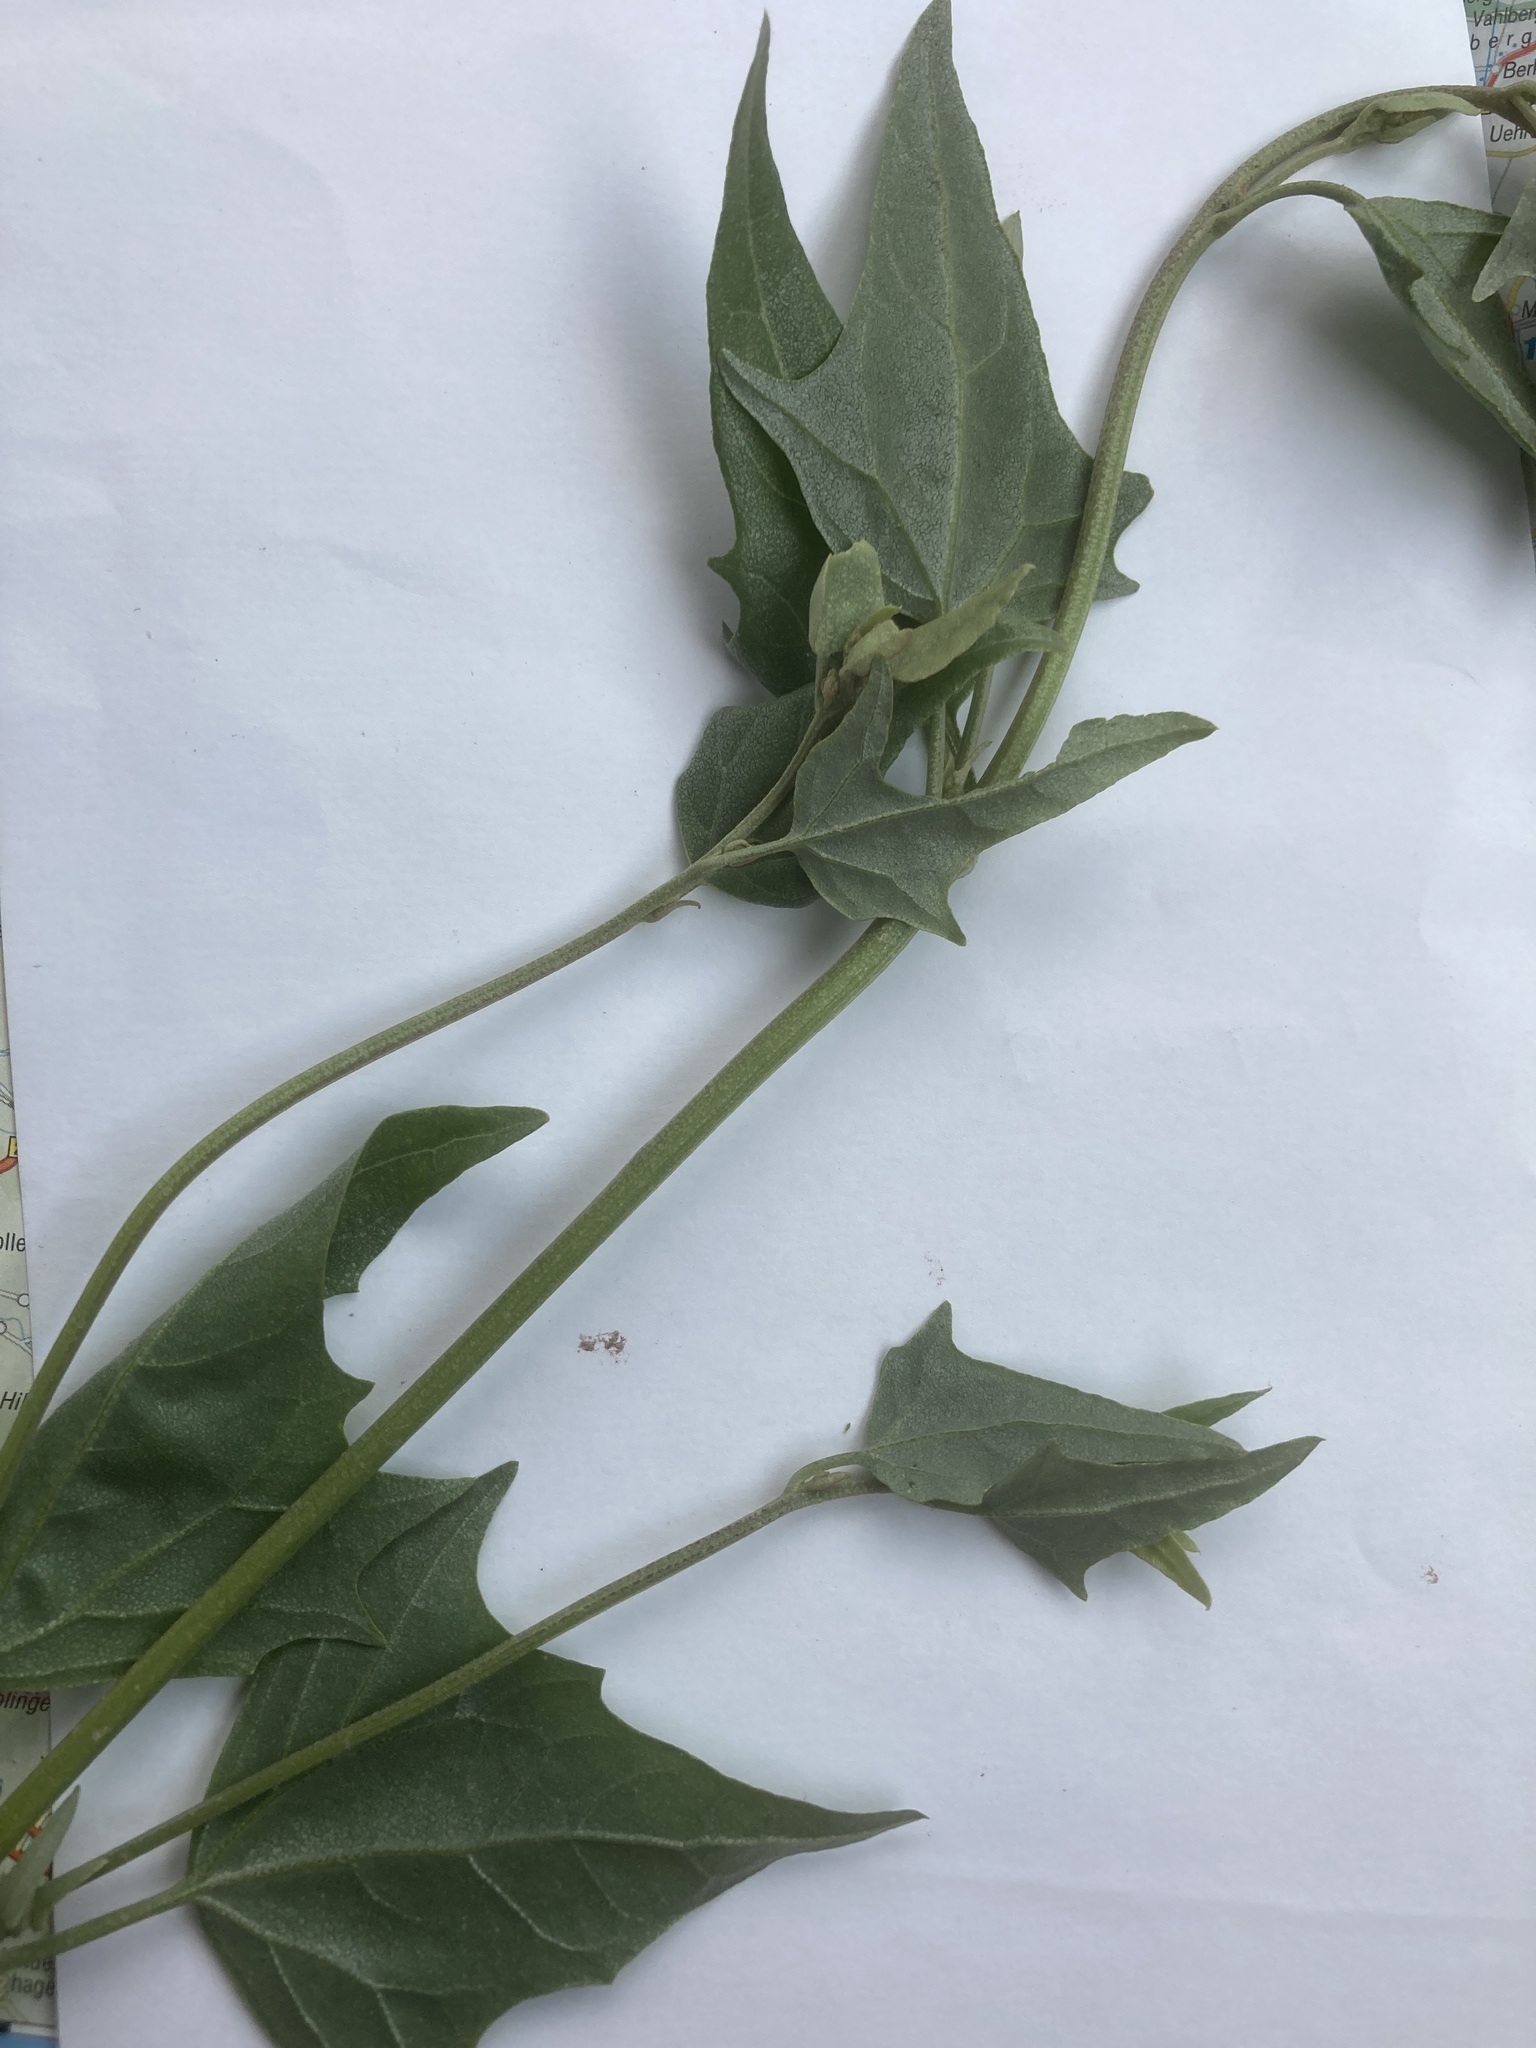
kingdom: Plantae
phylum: Tracheophyta
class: Magnoliopsida
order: Caryophyllales
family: Amaranthaceae
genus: Atriplex
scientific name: Atriplex micrantha
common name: Twoscale saltbush
